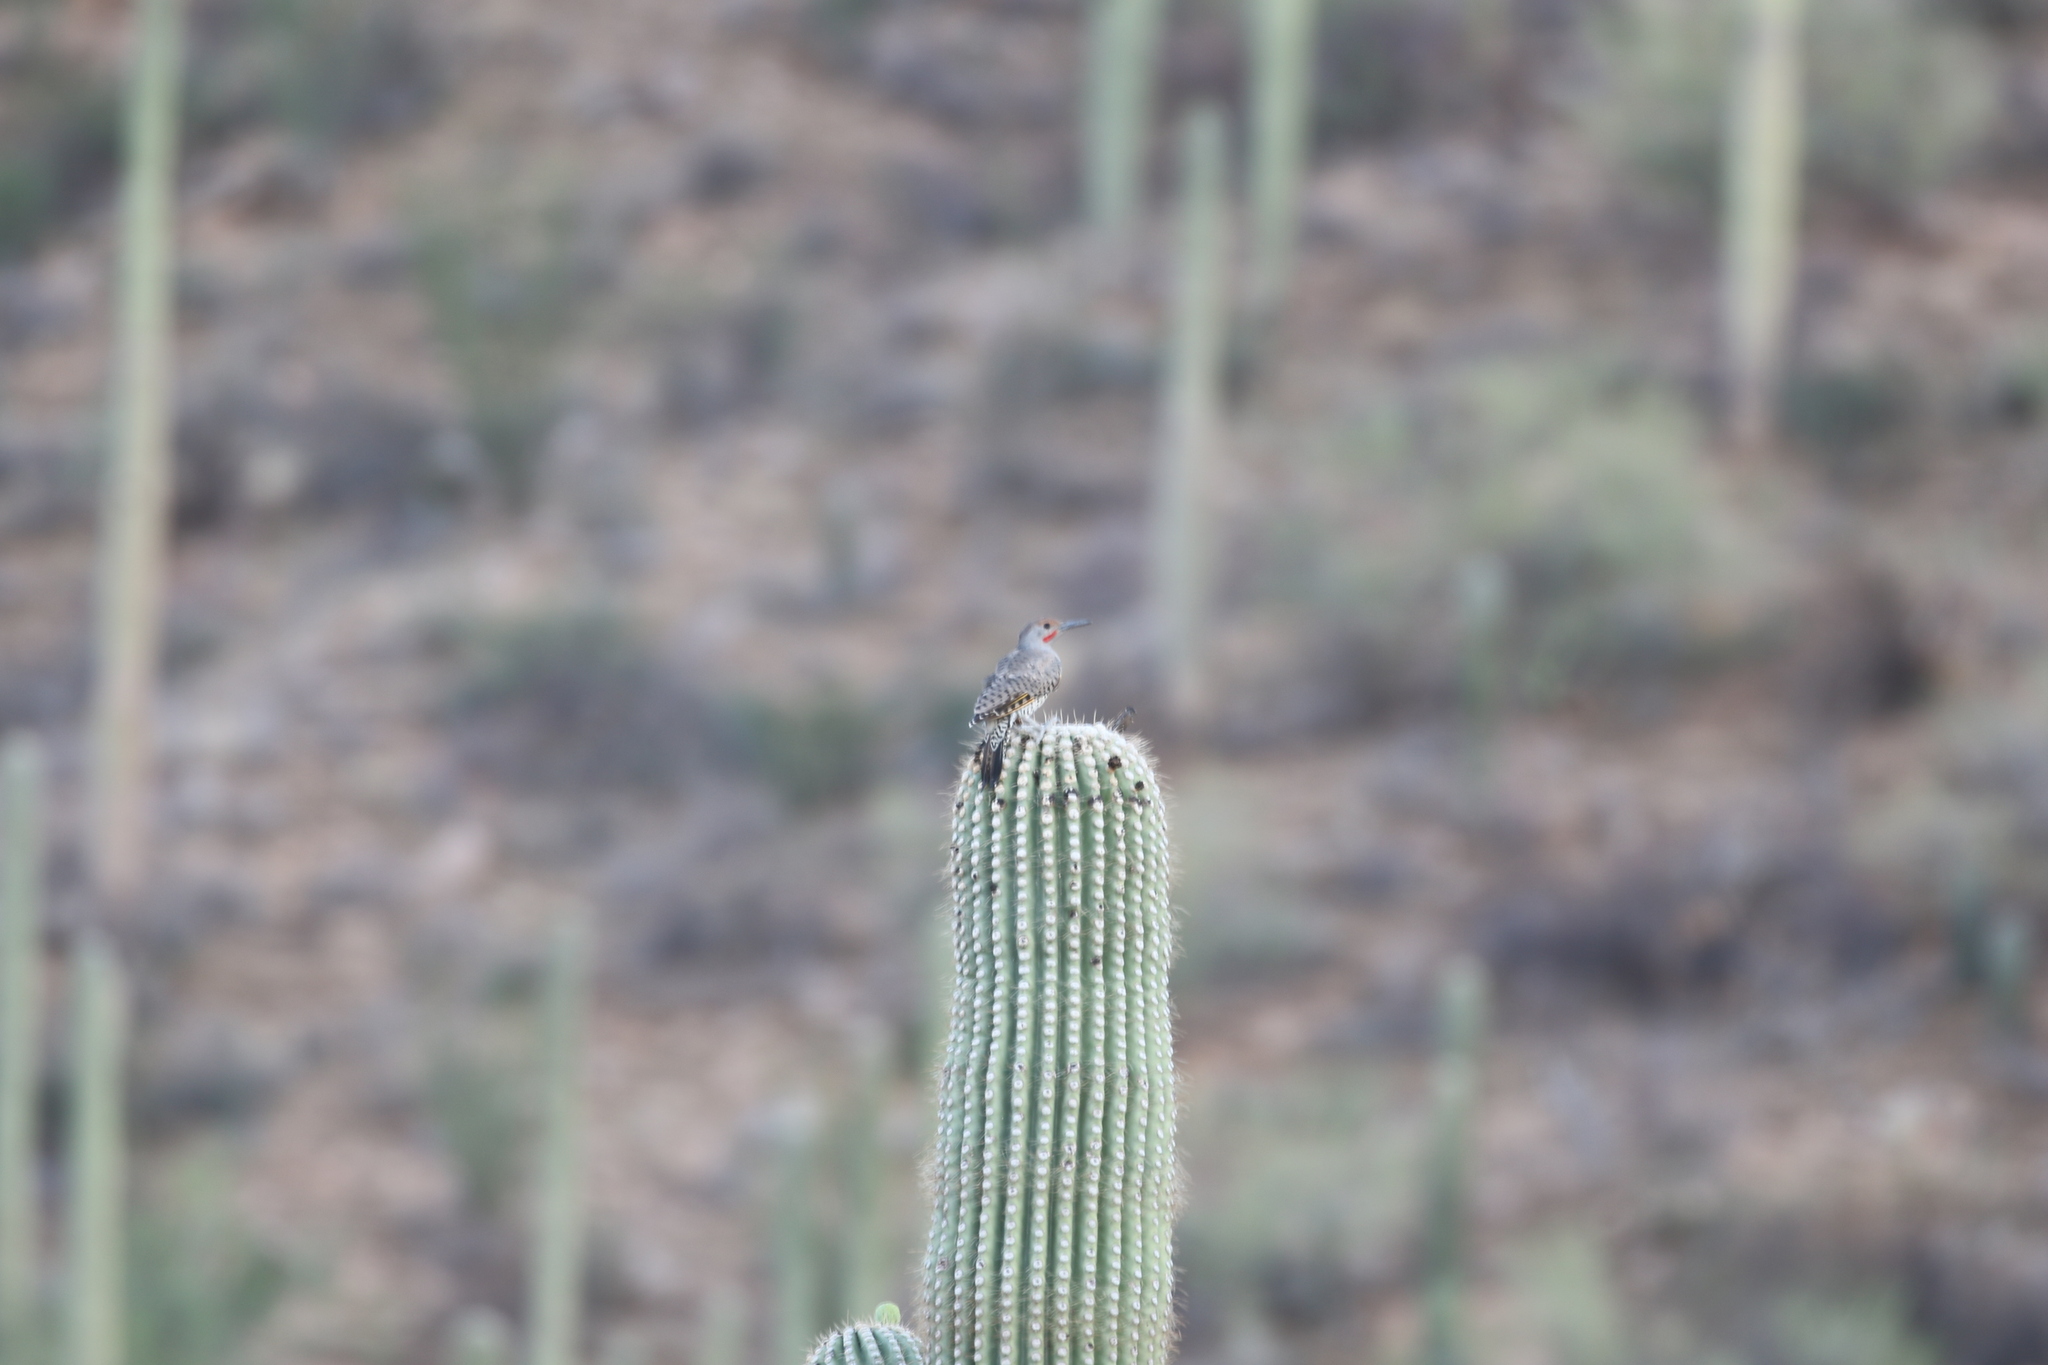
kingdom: Animalia
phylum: Chordata
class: Aves
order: Piciformes
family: Picidae
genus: Colaptes
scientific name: Colaptes chrysoides
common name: Gilded flicker
